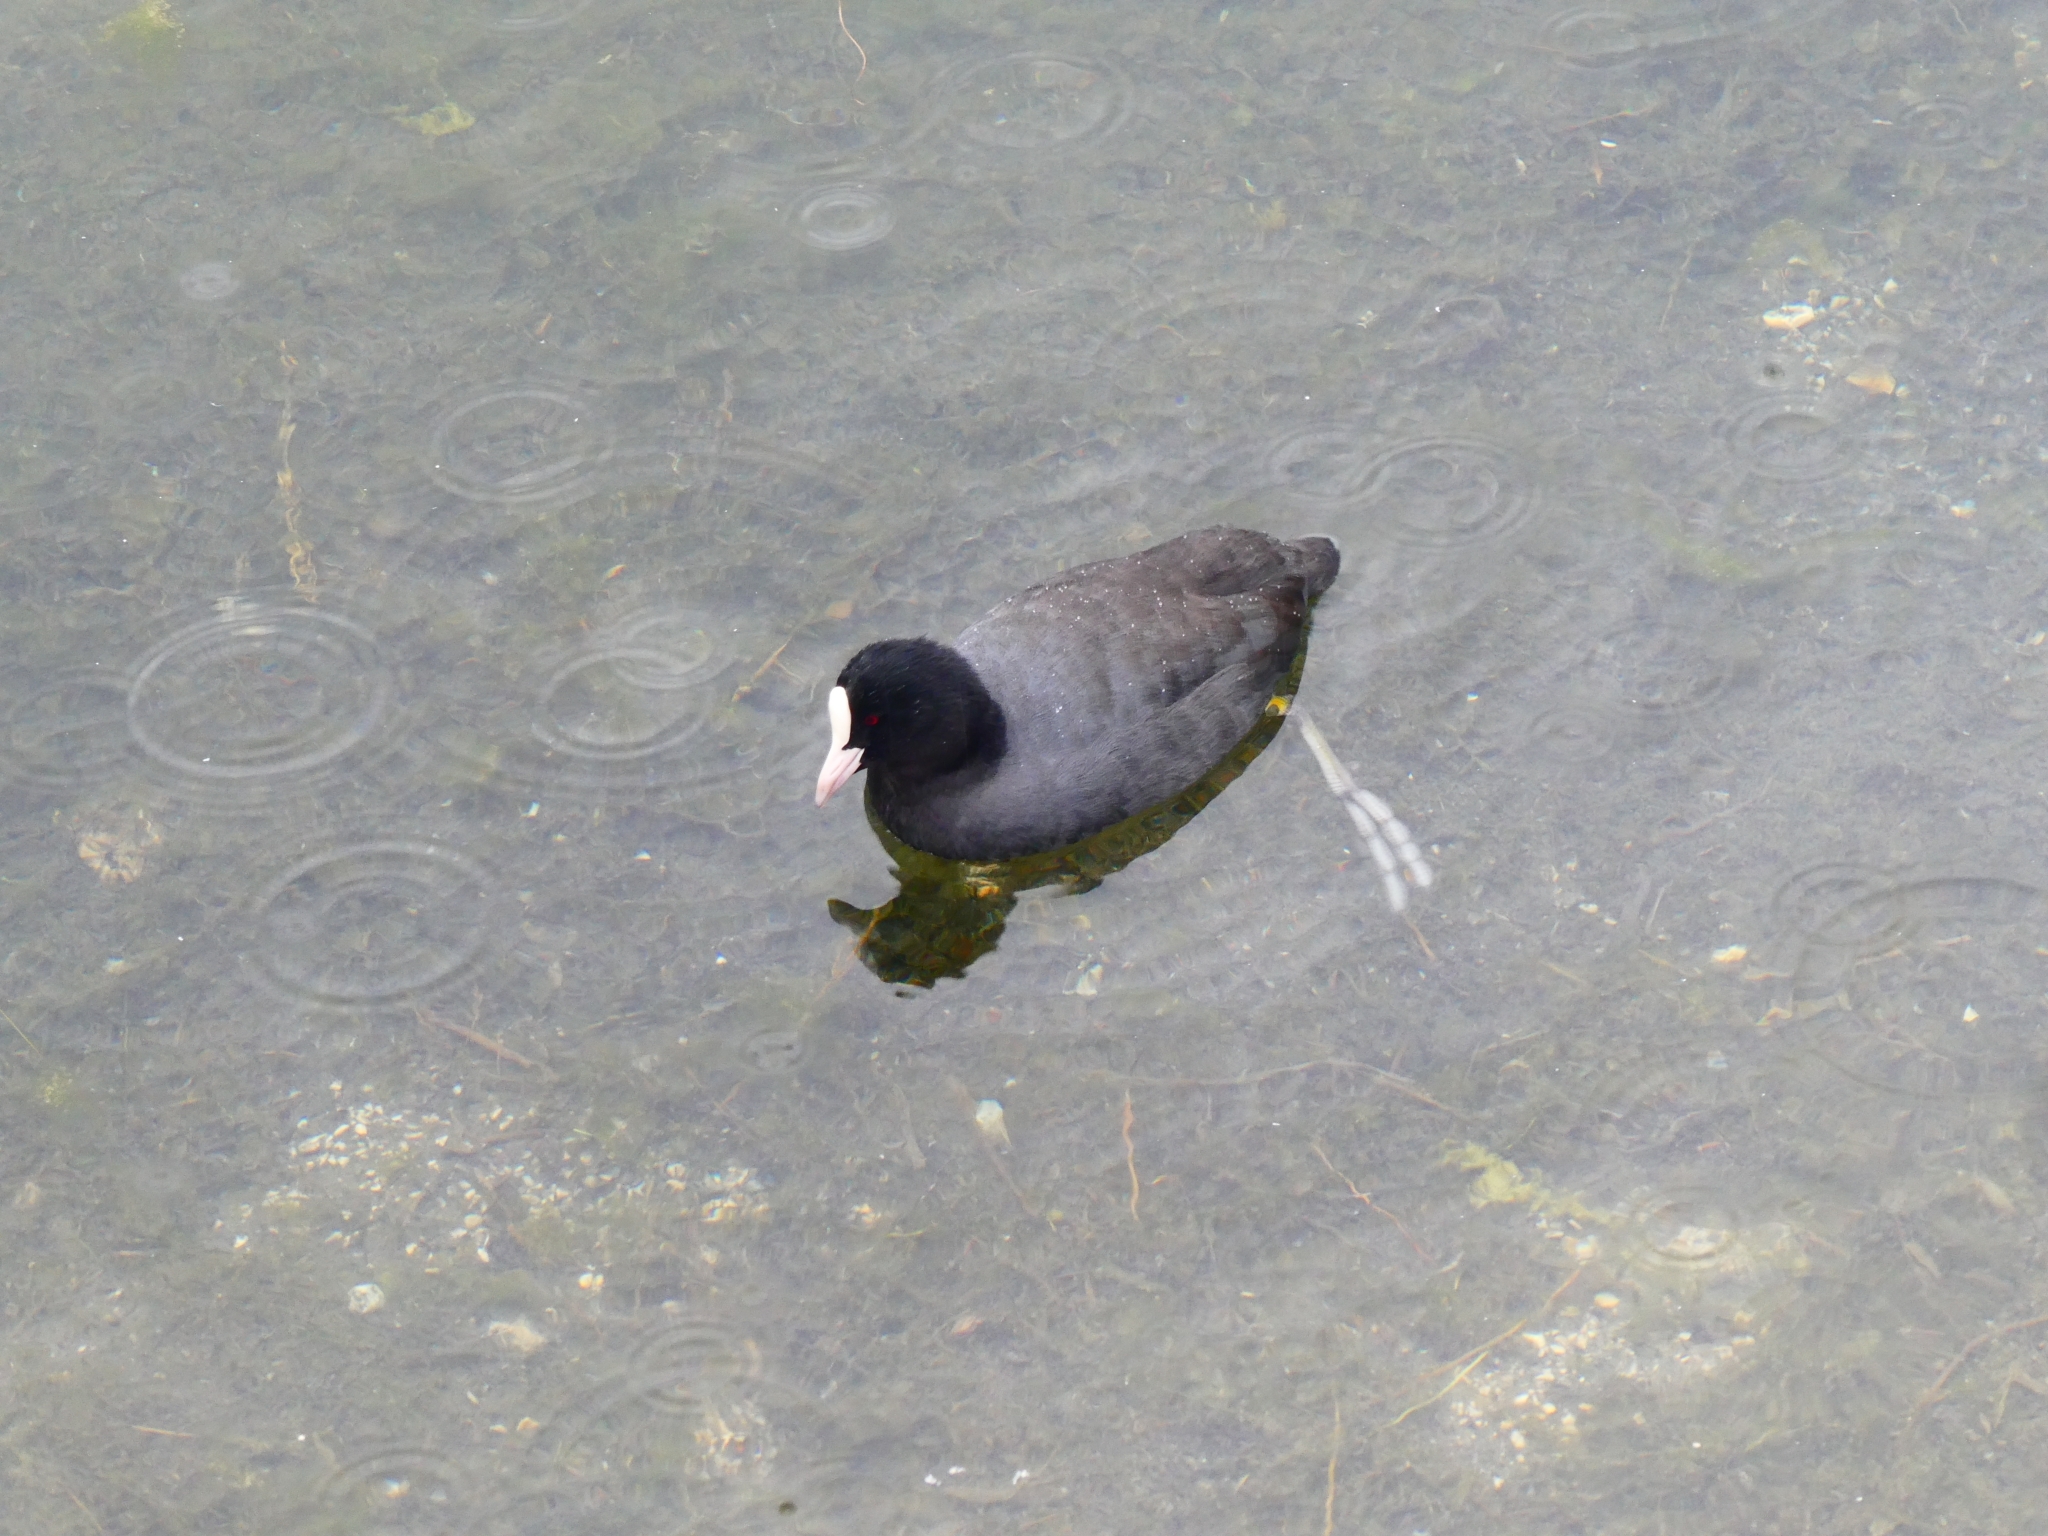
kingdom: Animalia
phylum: Chordata
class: Aves
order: Gruiformes
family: Rallidae
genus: Fulica
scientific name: Fulica atra
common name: Eurasian coot
